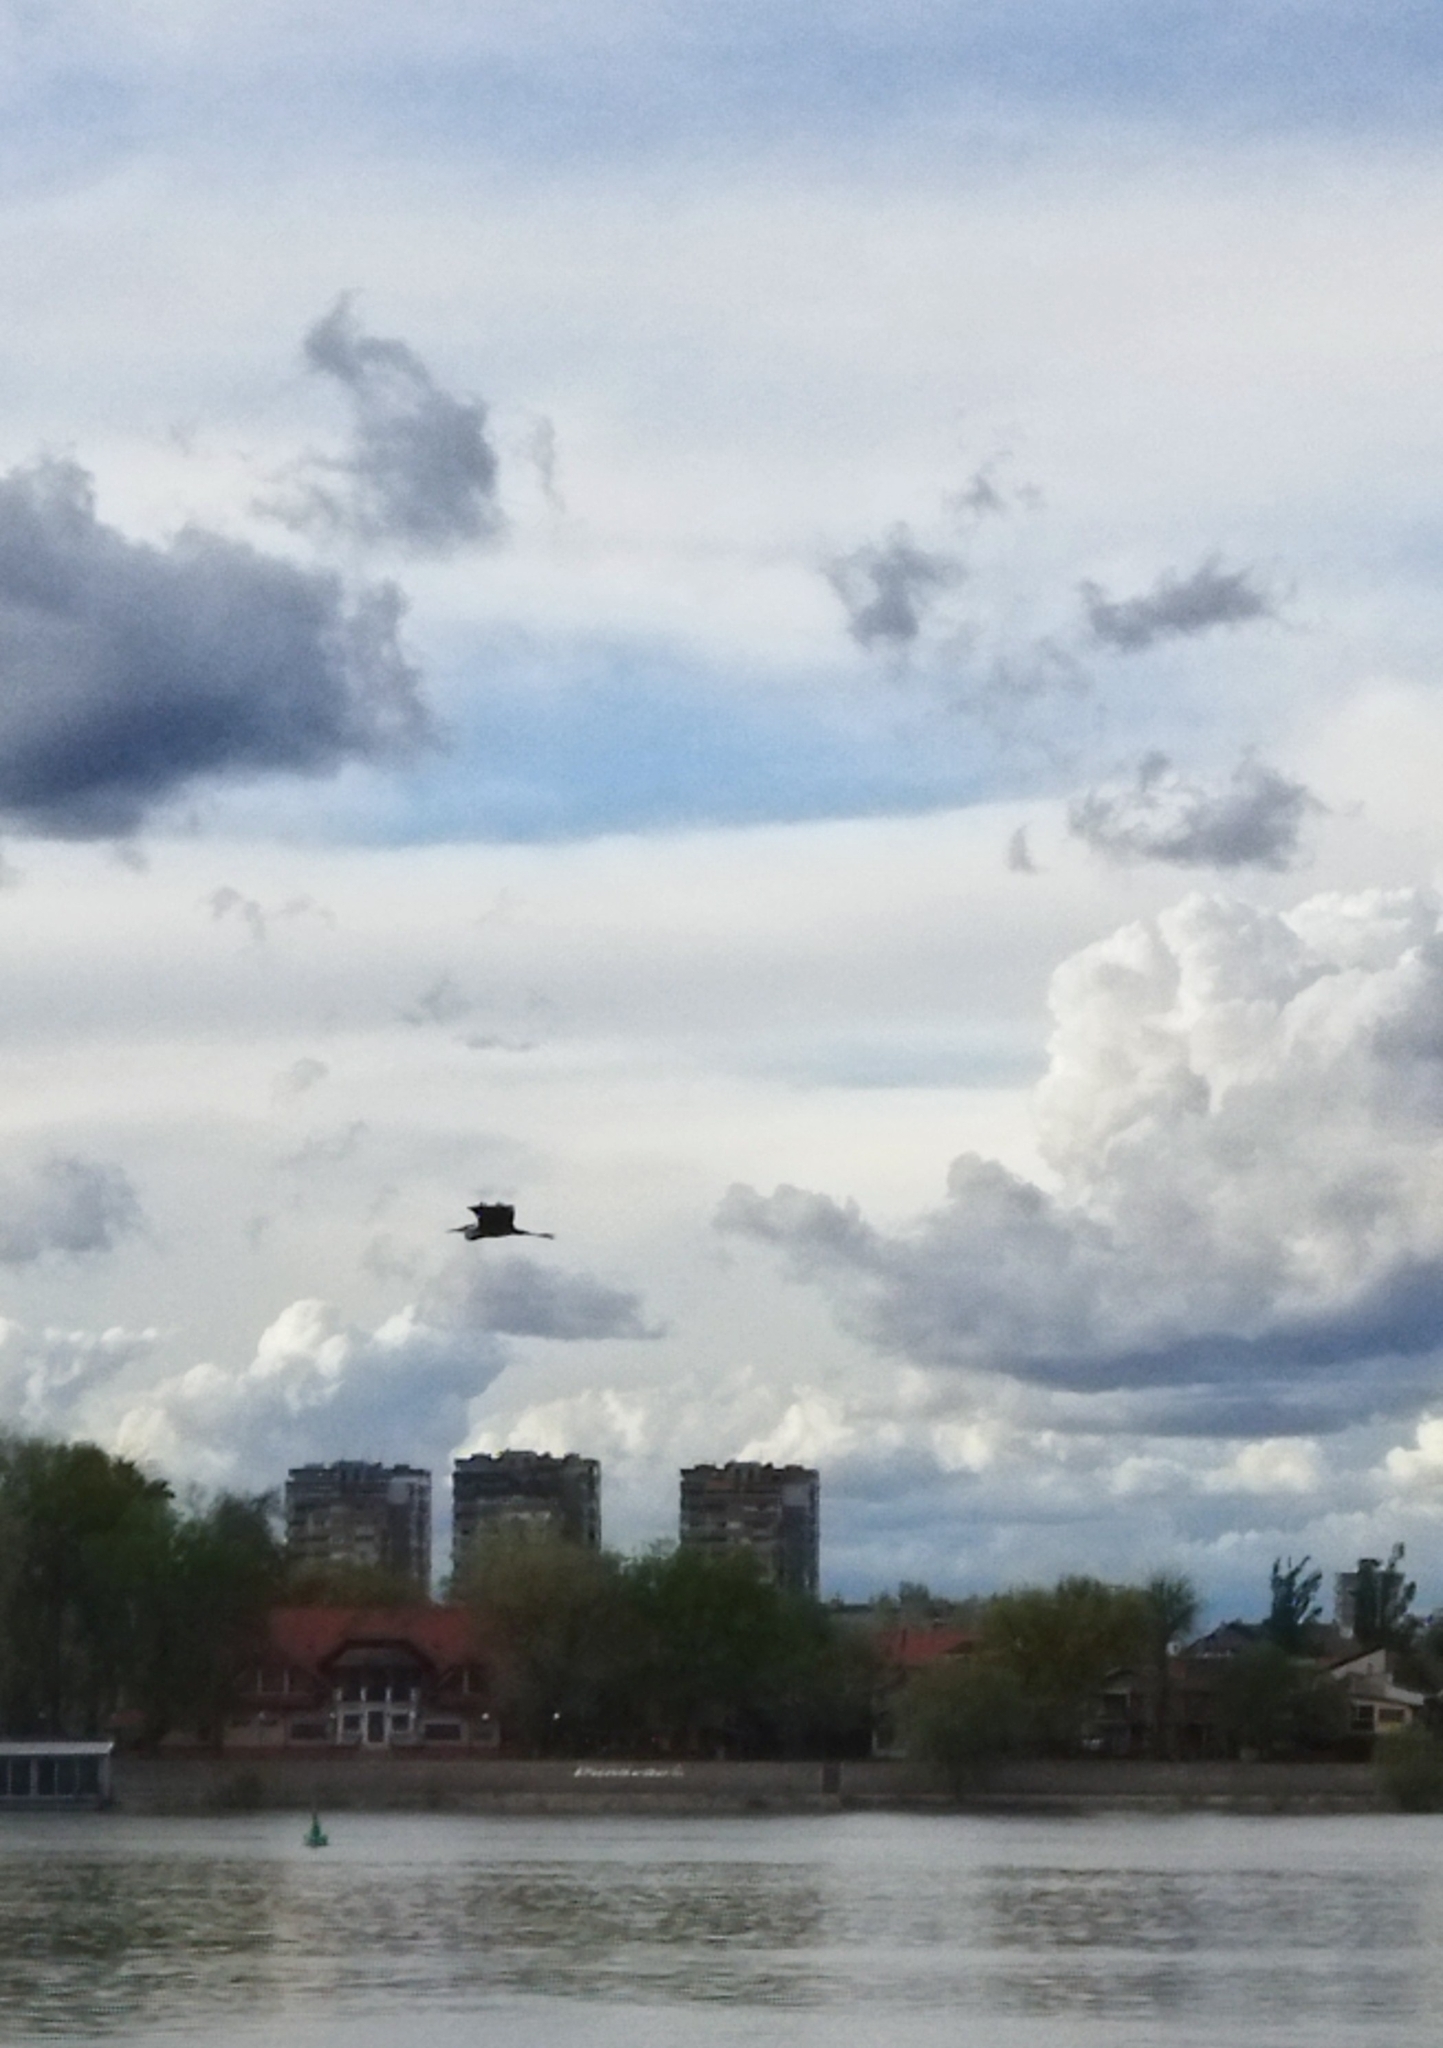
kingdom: Animalia
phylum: Chordata
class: Aves
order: Pelecaniformes
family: Ardeidae
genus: Ardea
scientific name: Ardea cinerea
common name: Grey heron
